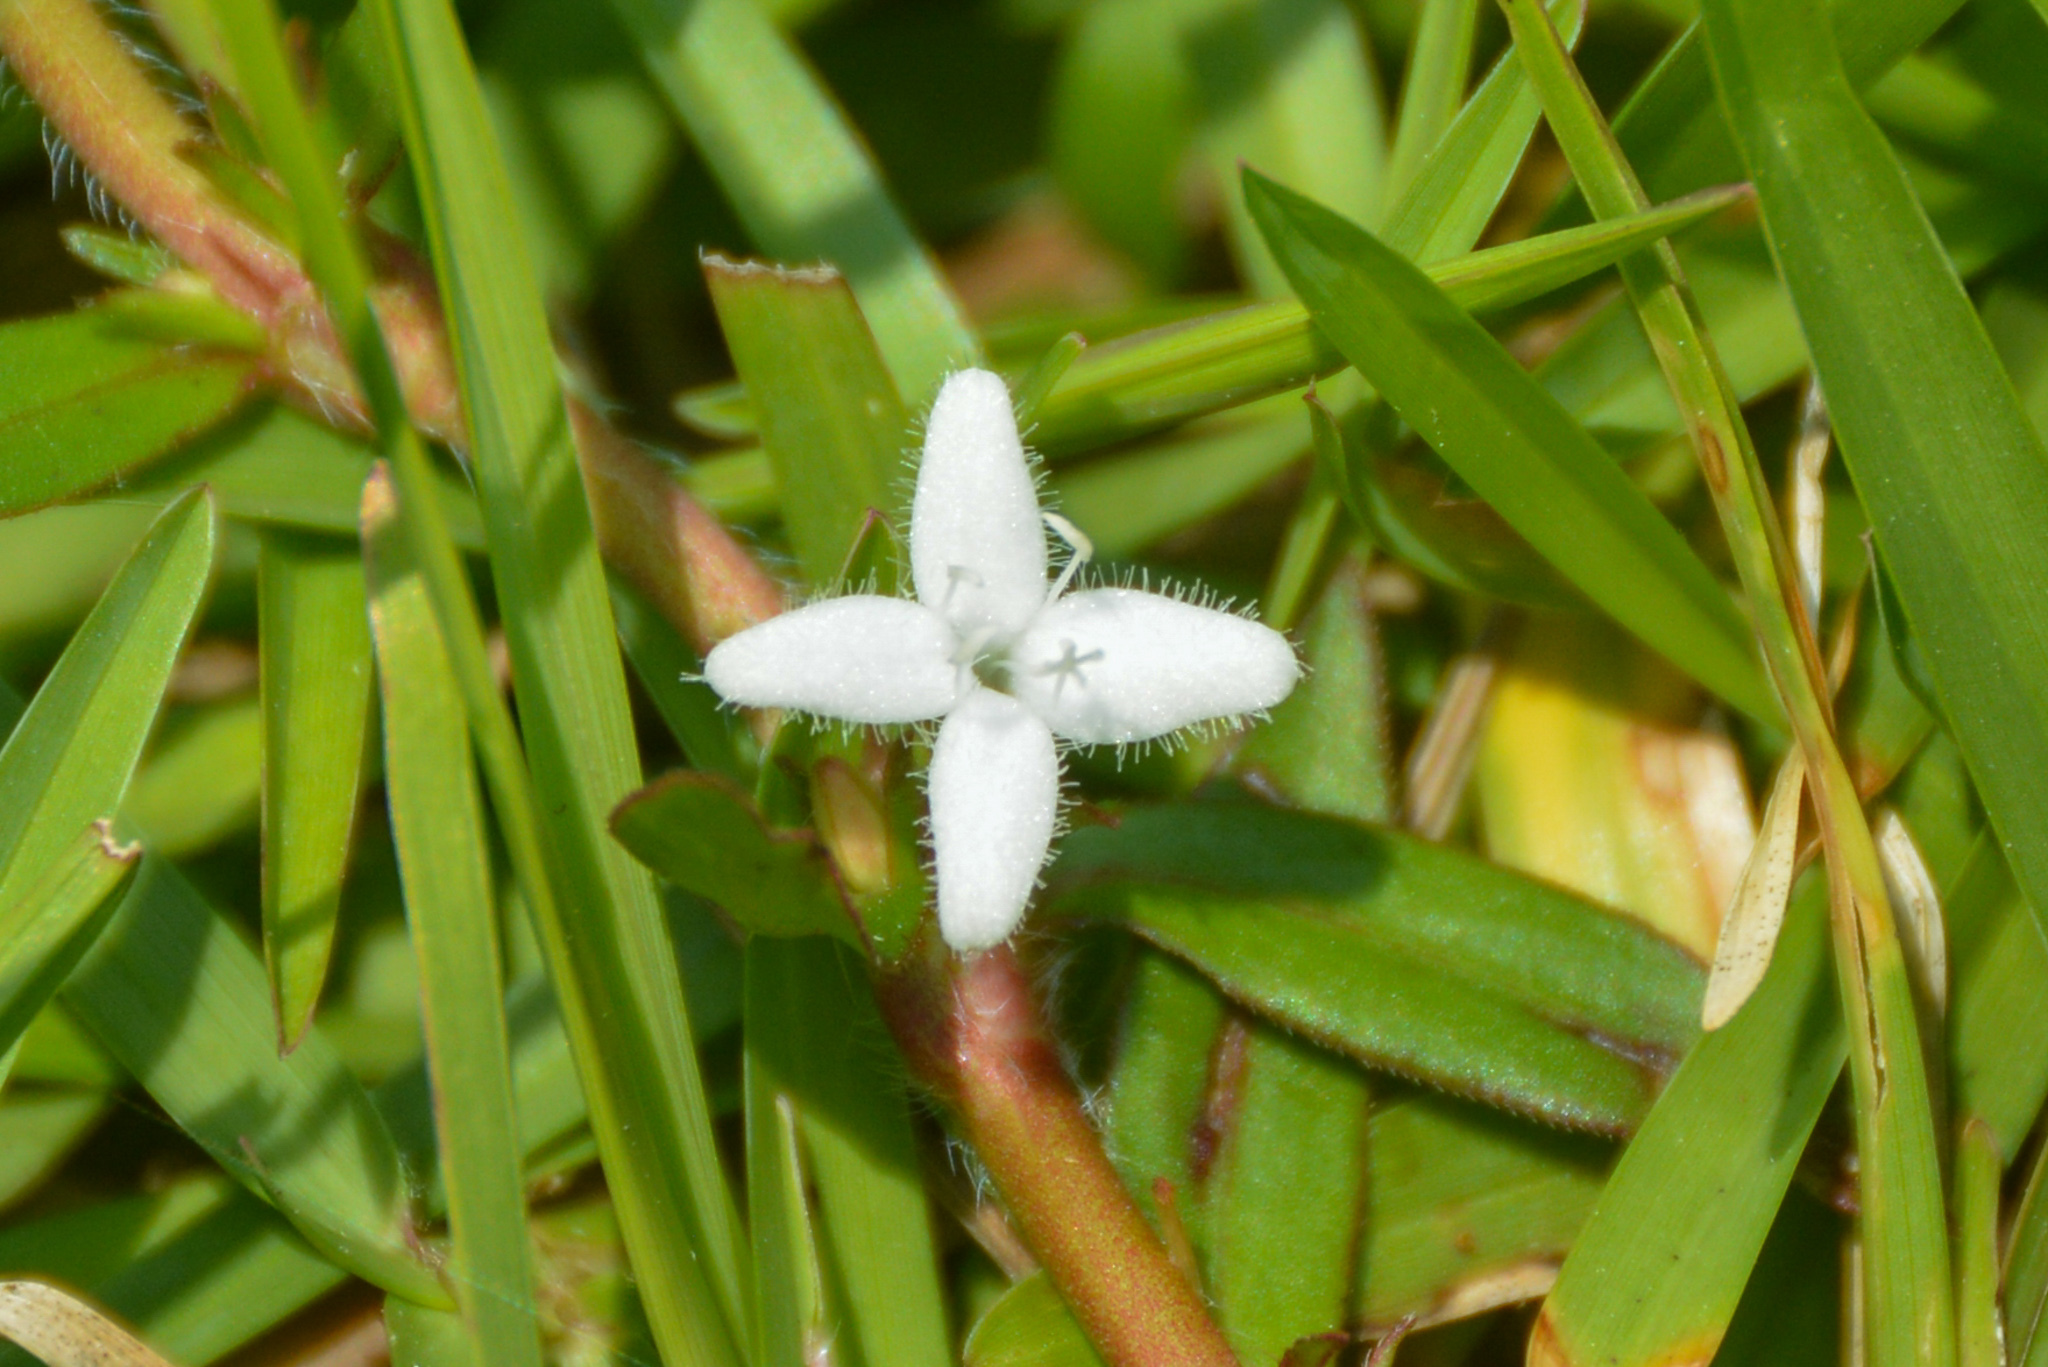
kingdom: Plantae
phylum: Tracheophyta
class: Magnoliopsida
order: Gentianales
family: Rubiaceae
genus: Diodia
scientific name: Diodia virginiana
